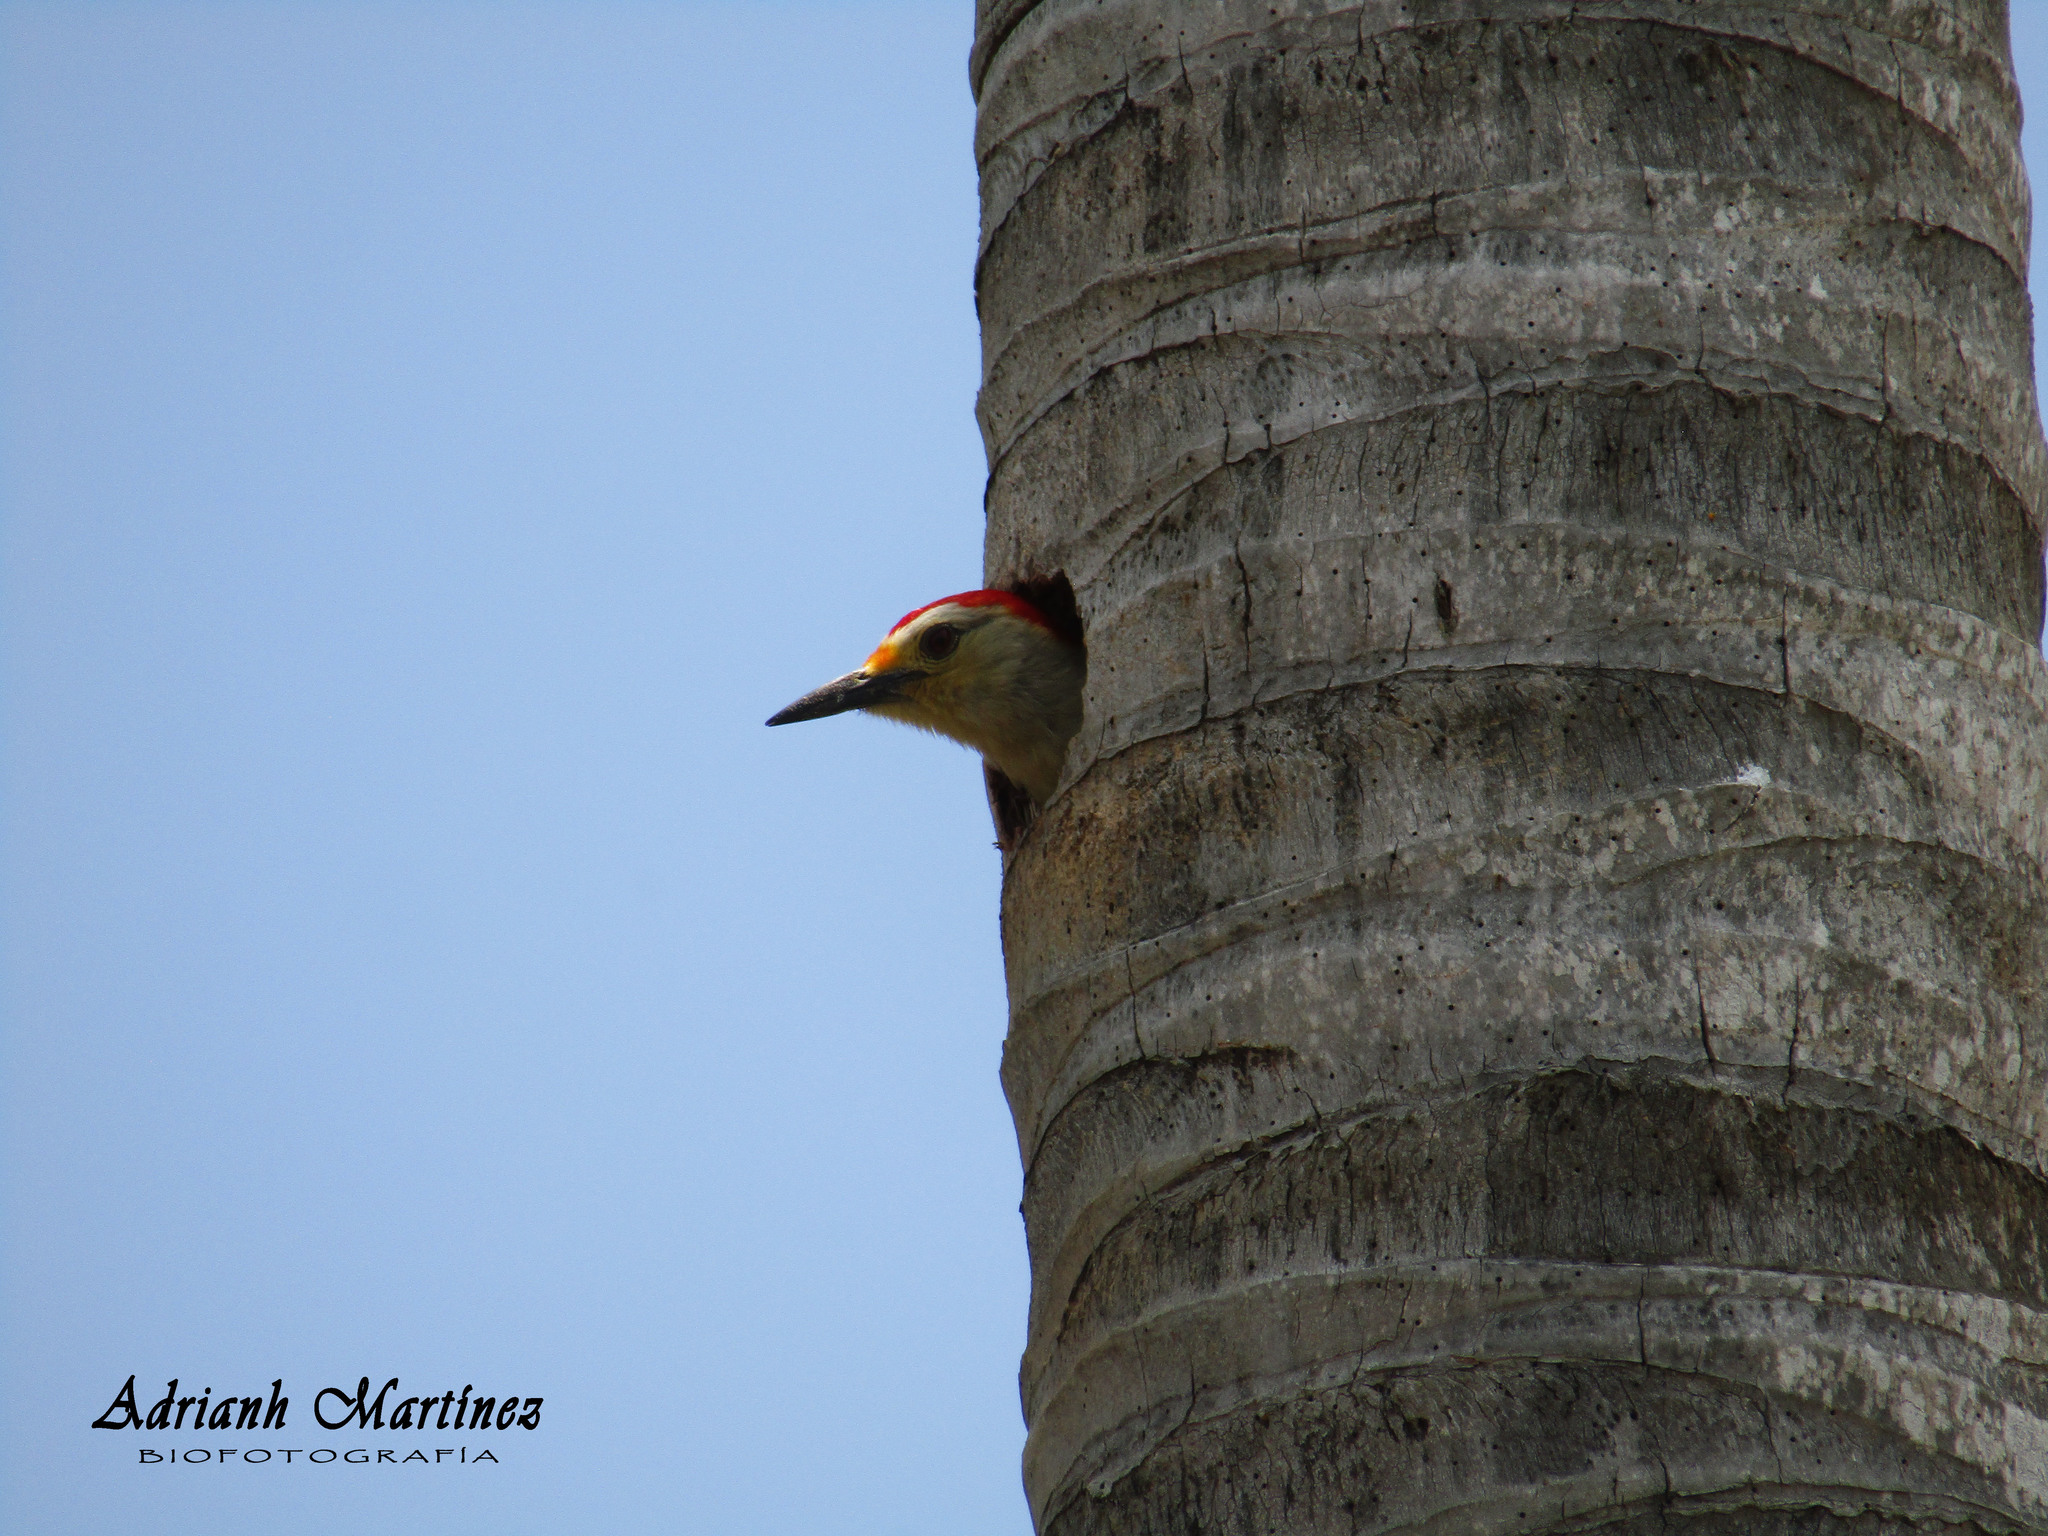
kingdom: Animalia
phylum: Chordata
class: Aves
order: Piciformes
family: Picidae
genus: Melanerpes
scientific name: Melanerpes aurifrons
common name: Golden-fronted woodpecker
